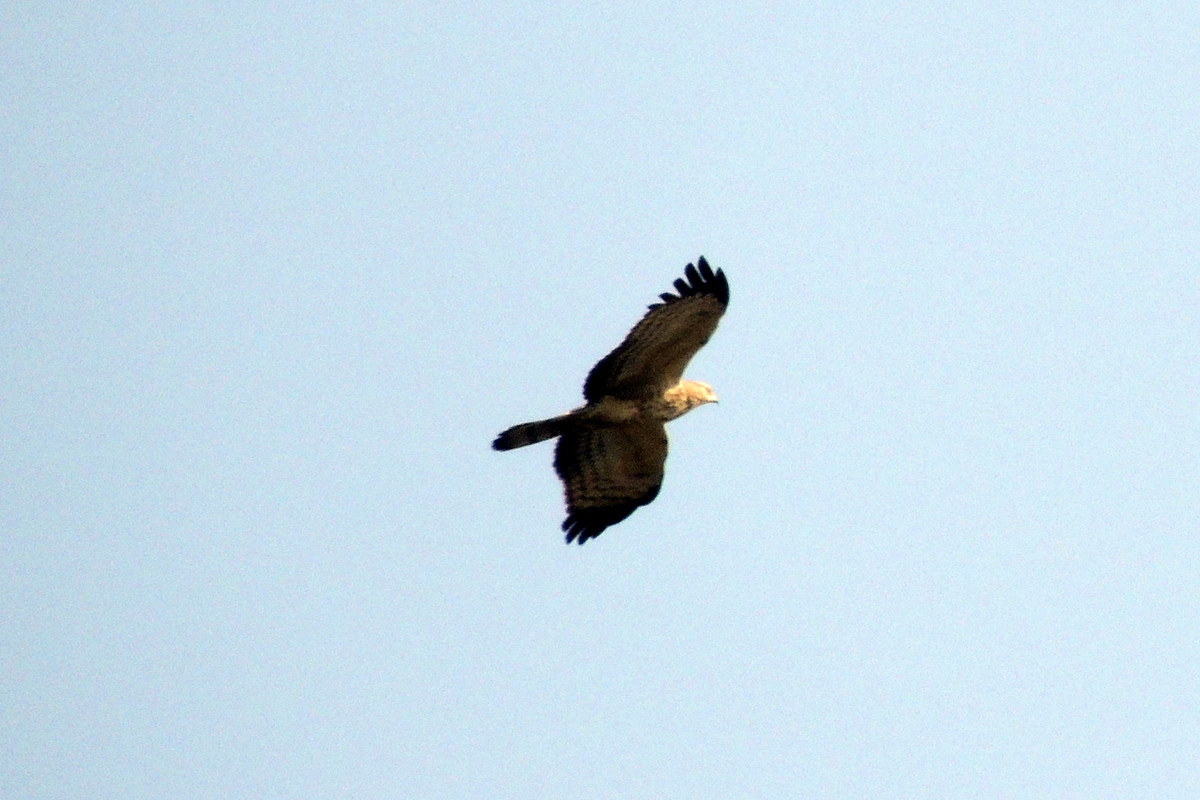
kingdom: Animalia
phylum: Chordata
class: Aves
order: Accipitriformes
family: Accipitridae
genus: Pernis
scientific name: Pernis ptilorhynchus
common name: Crested honey buzzard
